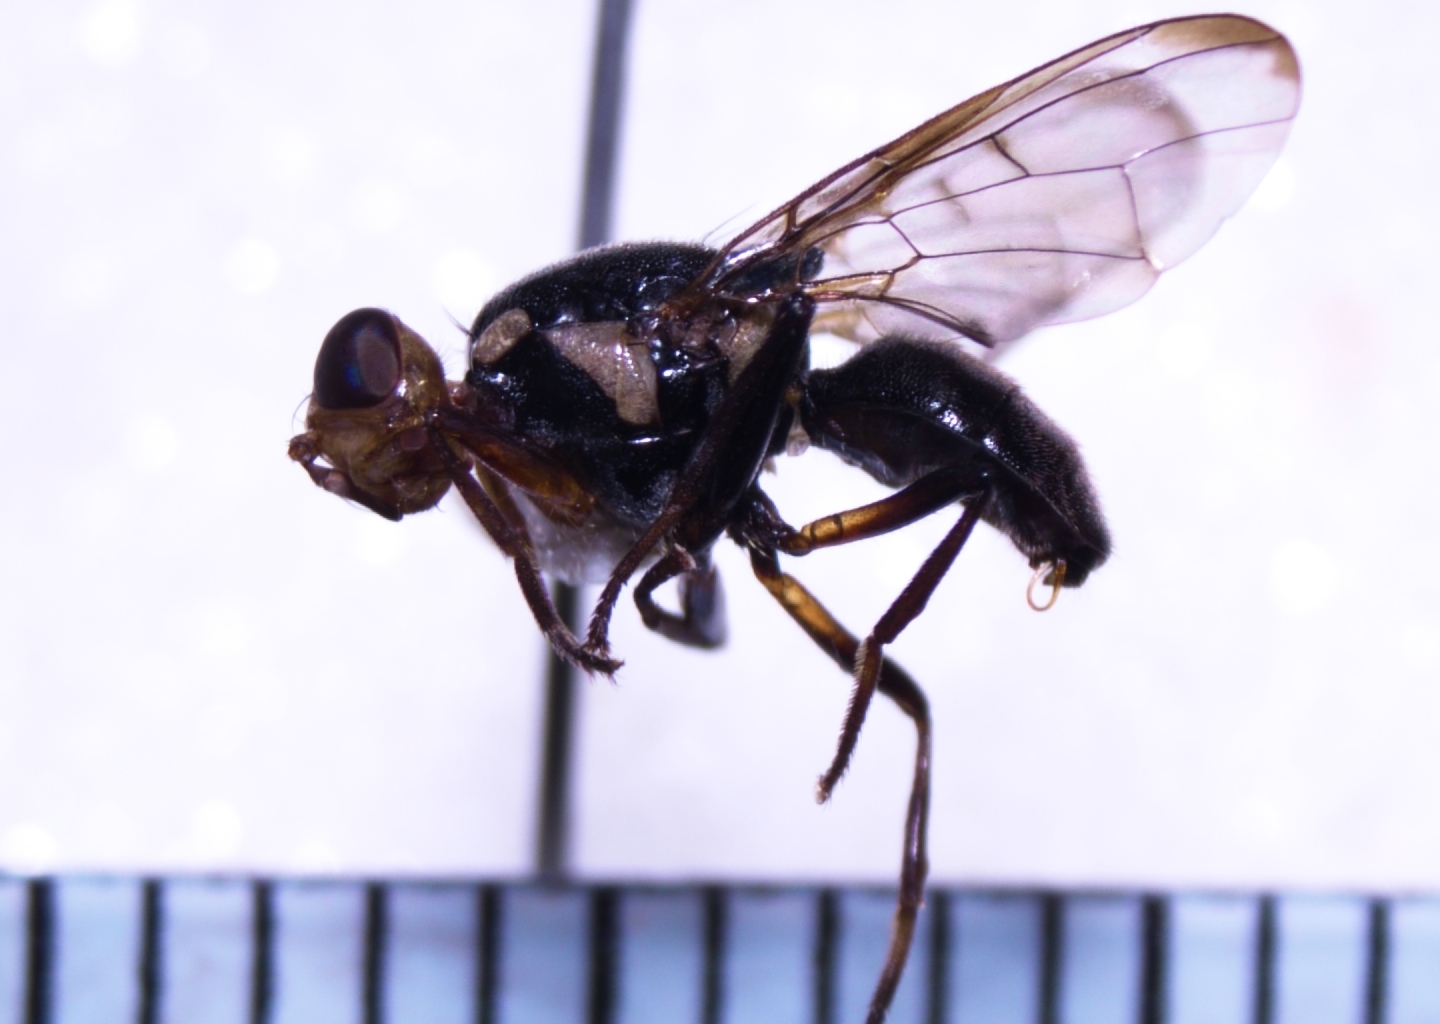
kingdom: Animalia
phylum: Arthropoda
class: Insecta
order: Diptera
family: Tephritidae
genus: Bactrocera
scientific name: Bactrocera melanotus
